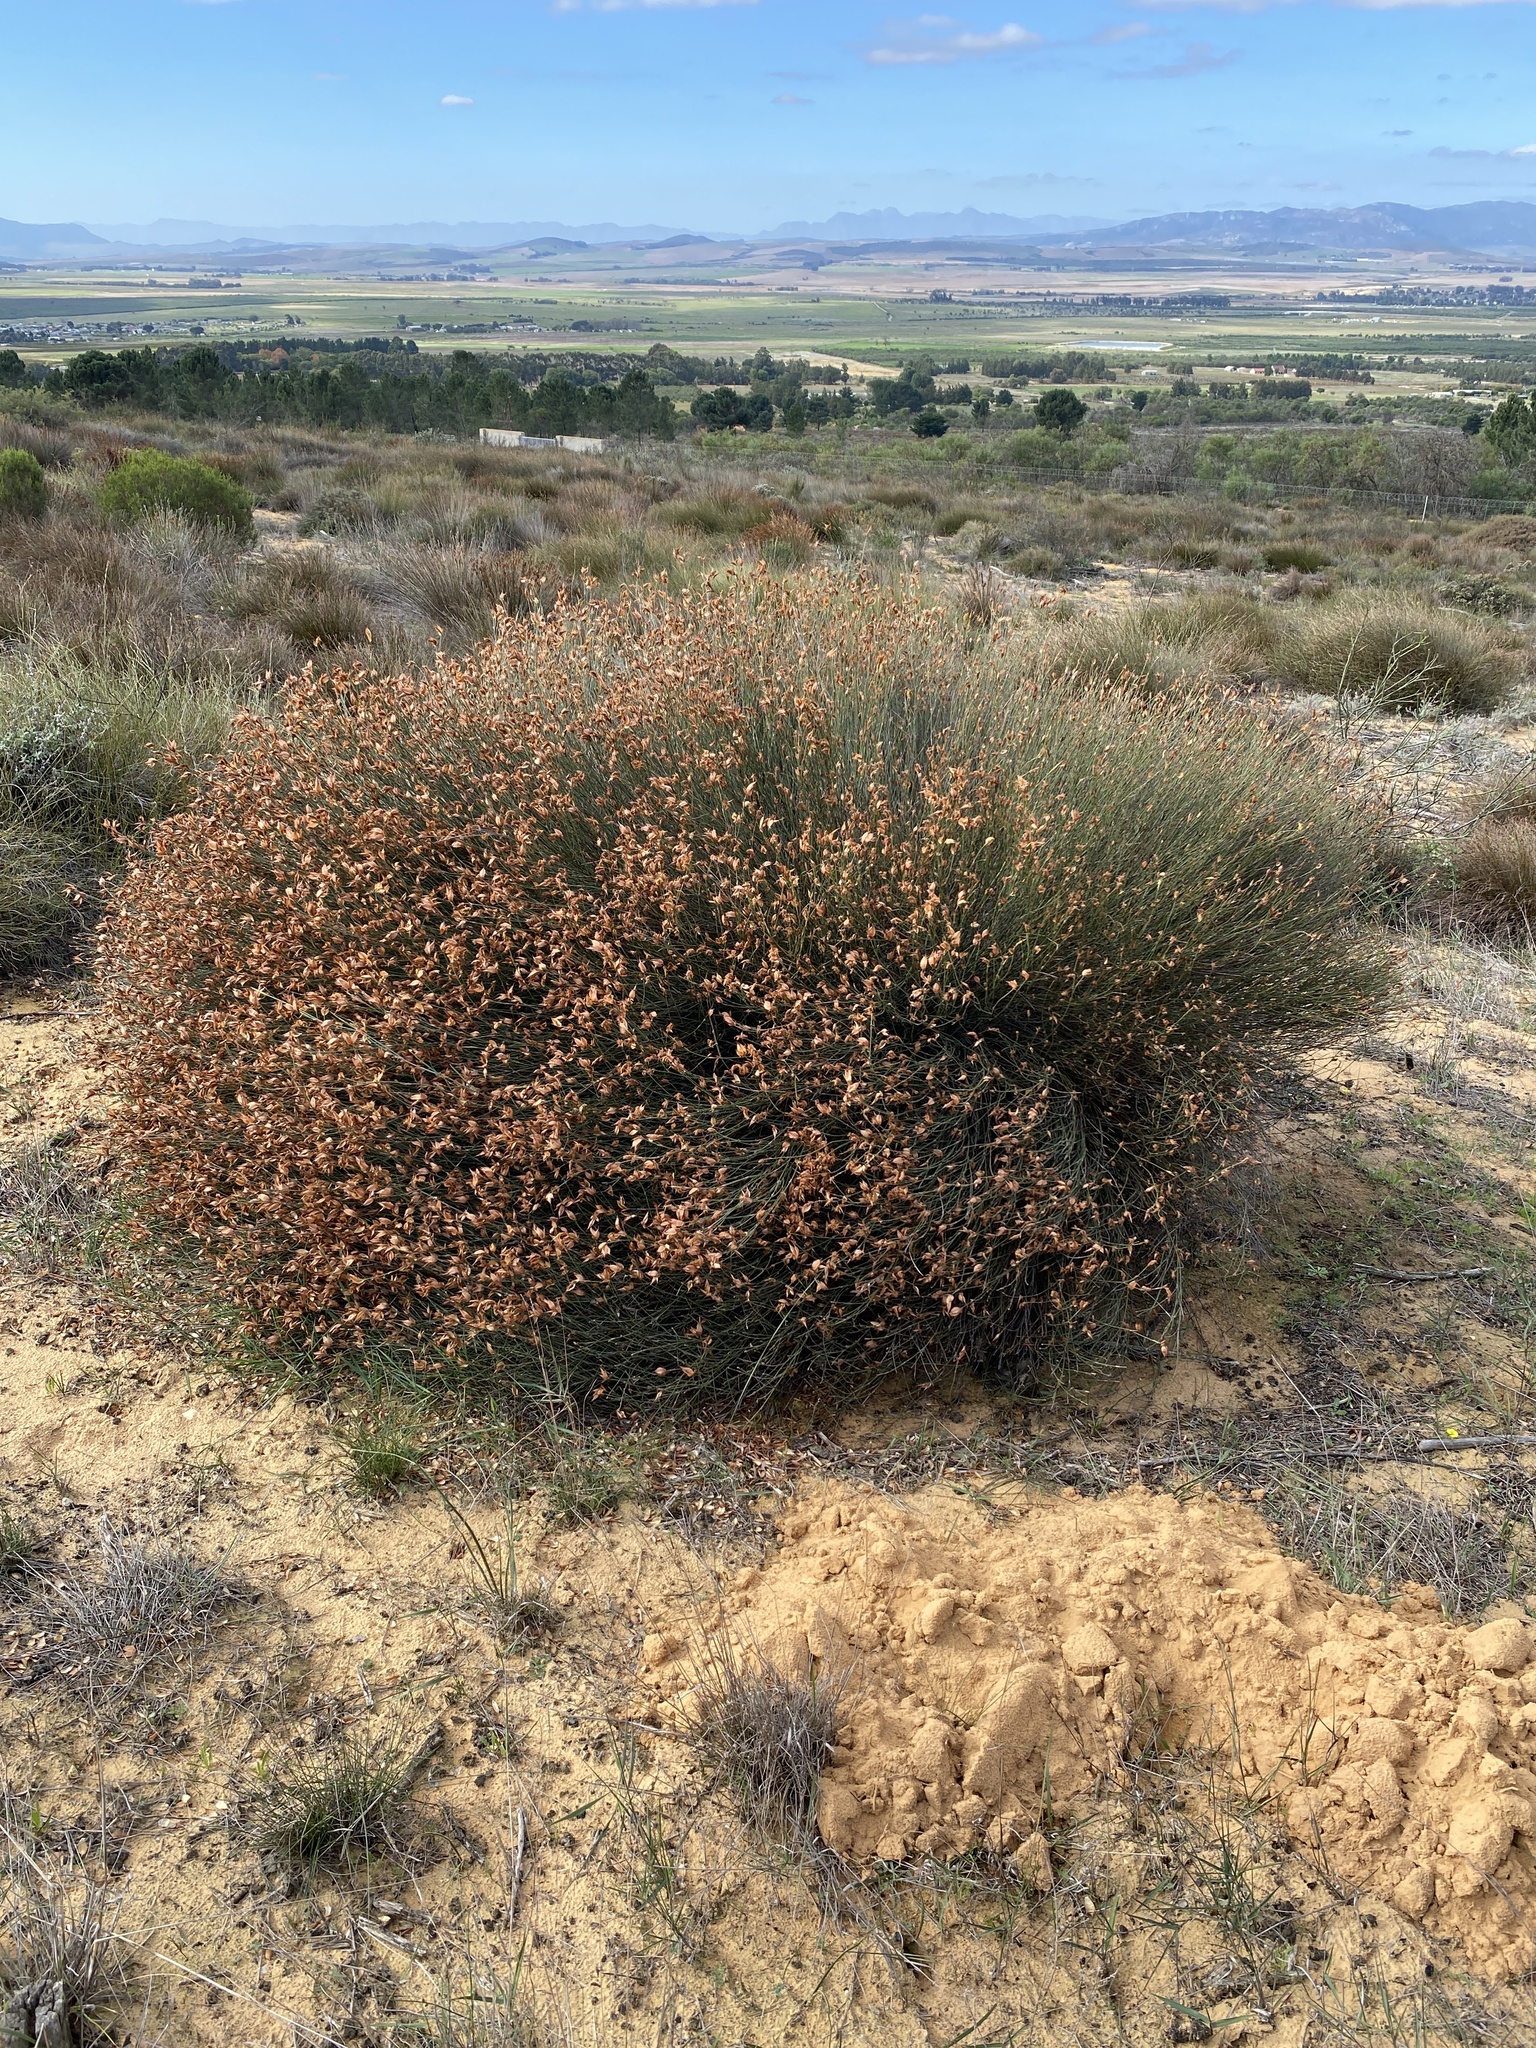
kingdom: Plantae
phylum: Tracheophyta
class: Liliopsida
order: Poales
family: Restionaceae
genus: Willdenowia
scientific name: Willdenowia incurvata
